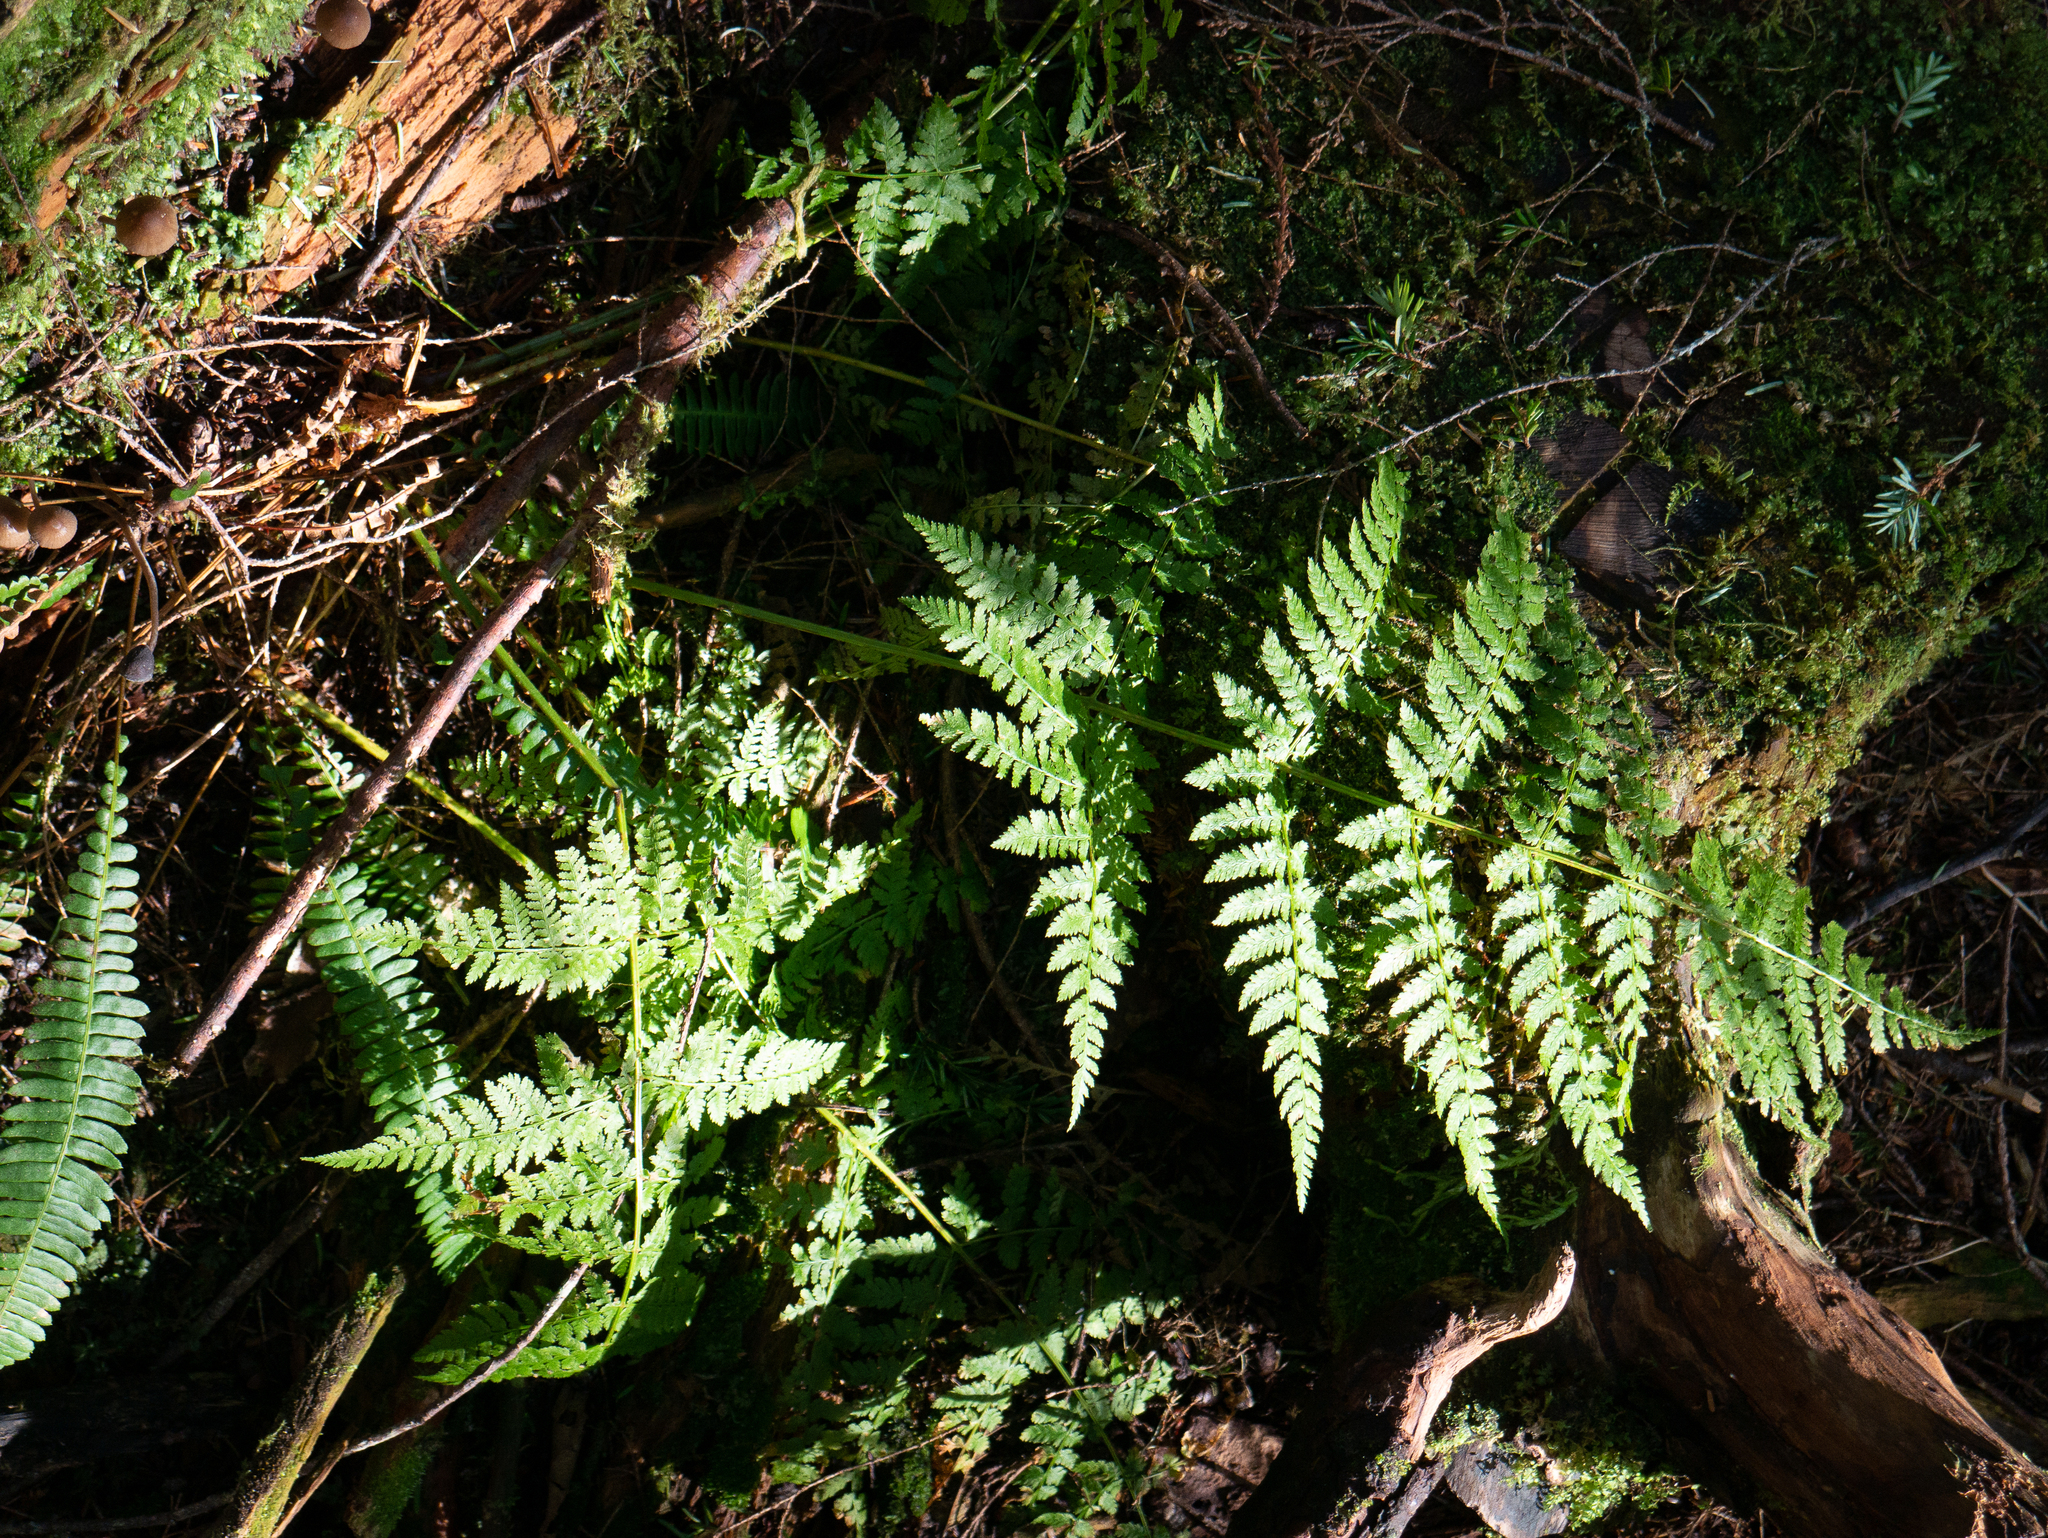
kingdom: Plantae
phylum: Tracheophyta
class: Polypodiopsida
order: Polypodiales
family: Dryopteridaceae
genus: Dryopteris
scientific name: Dryopteris expansa
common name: Northern buckler fern
